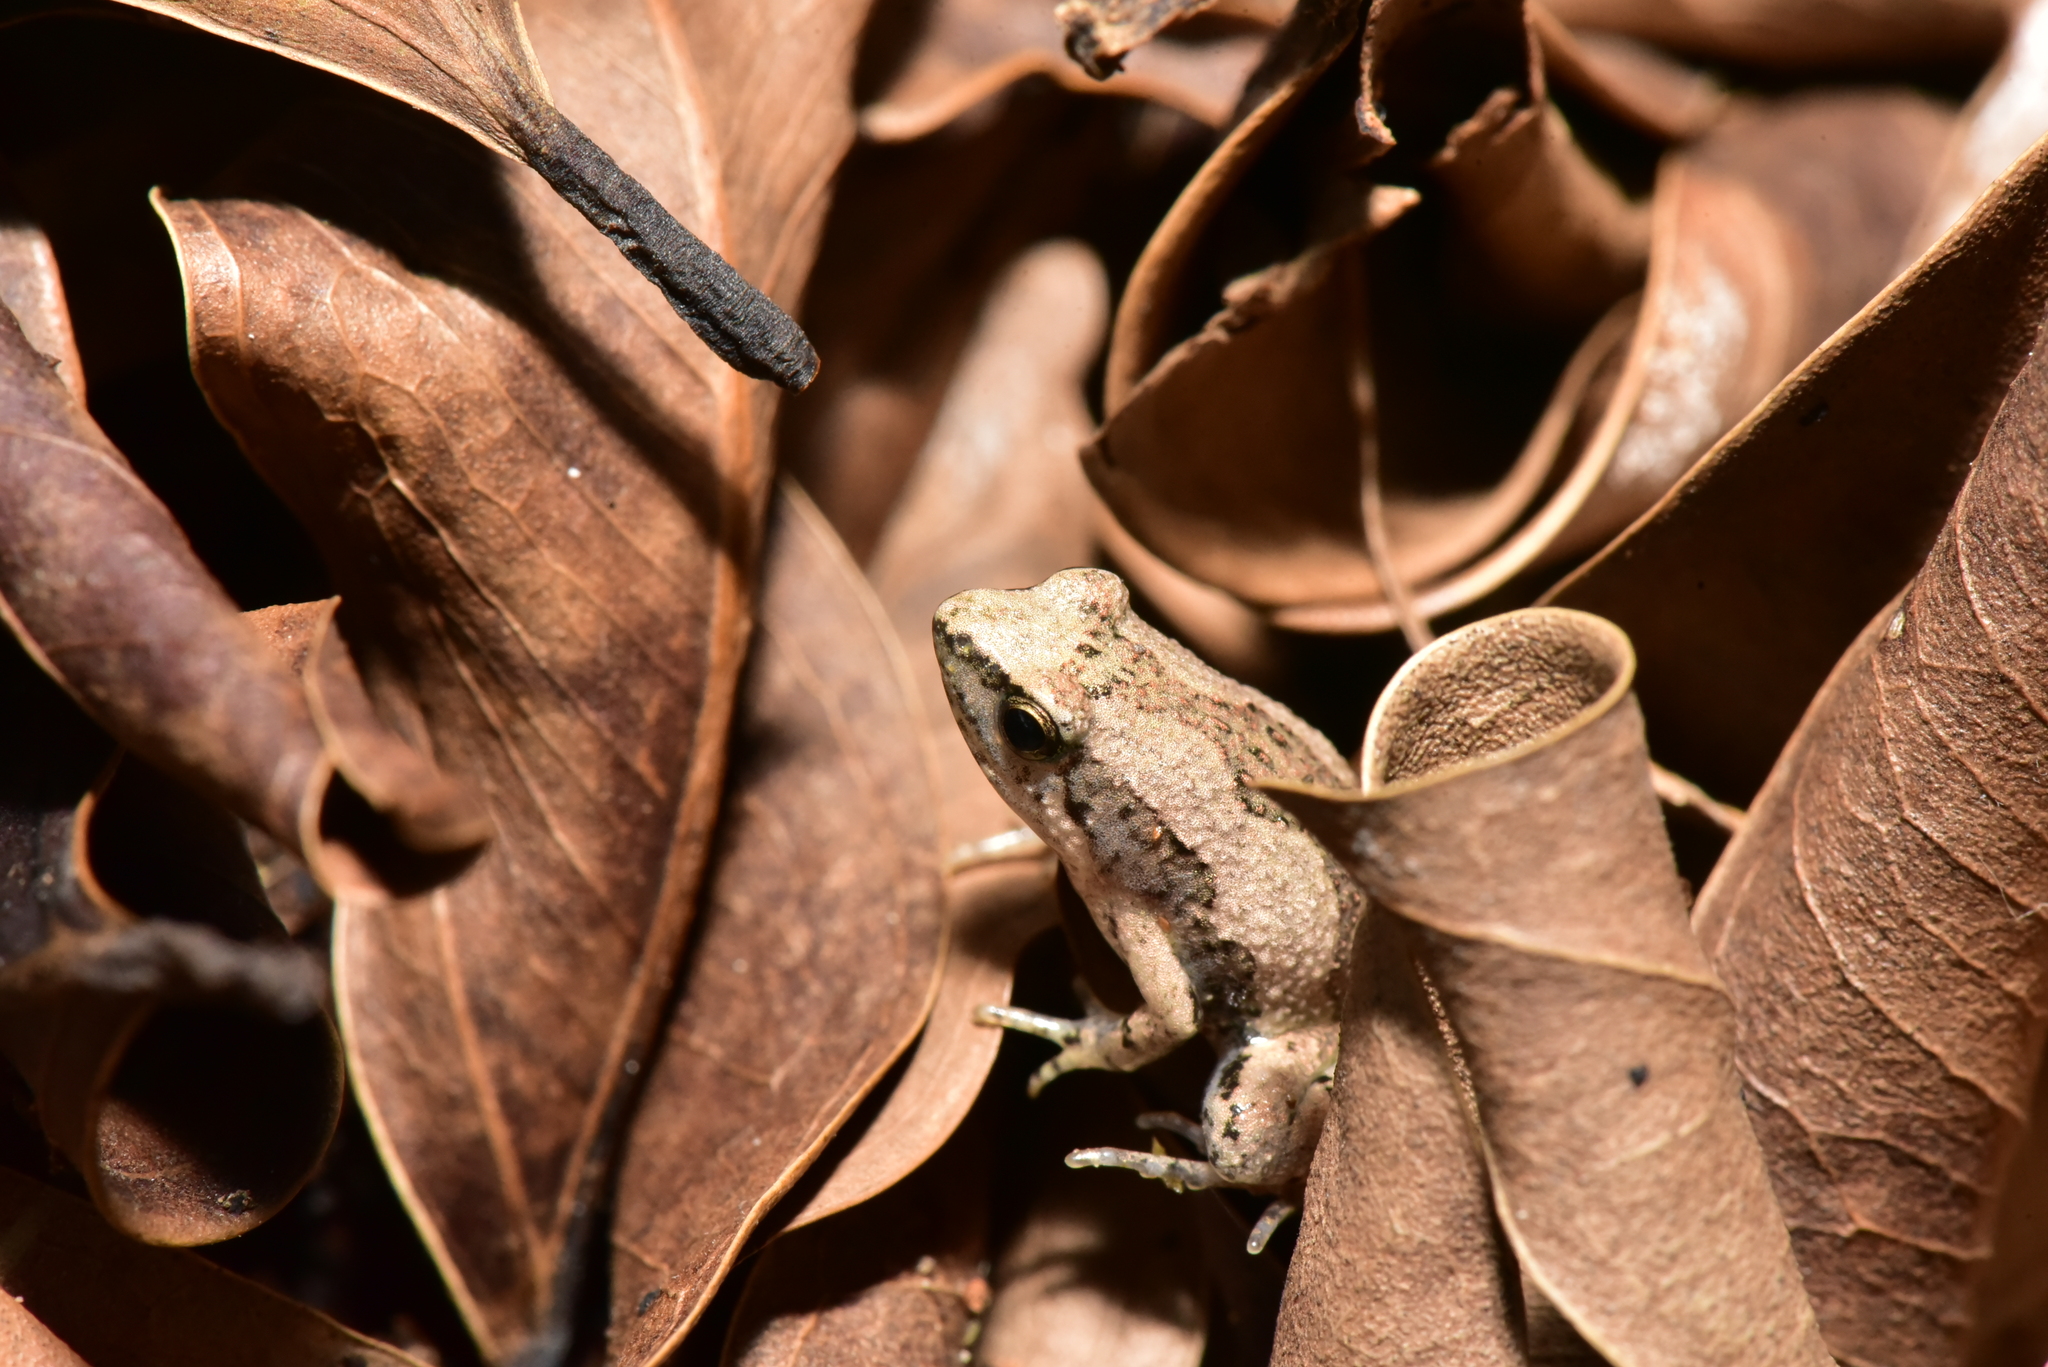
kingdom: Animalia
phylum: Chordata
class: Amphibia
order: Anura
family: Microhylidae
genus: Microhyla
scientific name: Microhyla fissipes
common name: Ornate narrow-mouthed frog
